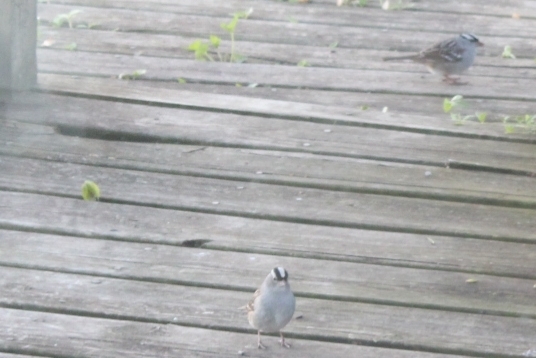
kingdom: Animalia
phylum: Chordata
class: Aves
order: Passeriformes
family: Passerellidae
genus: Zonotrichia
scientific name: Zonotrichia leucophrys
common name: White-crowned sparrow
